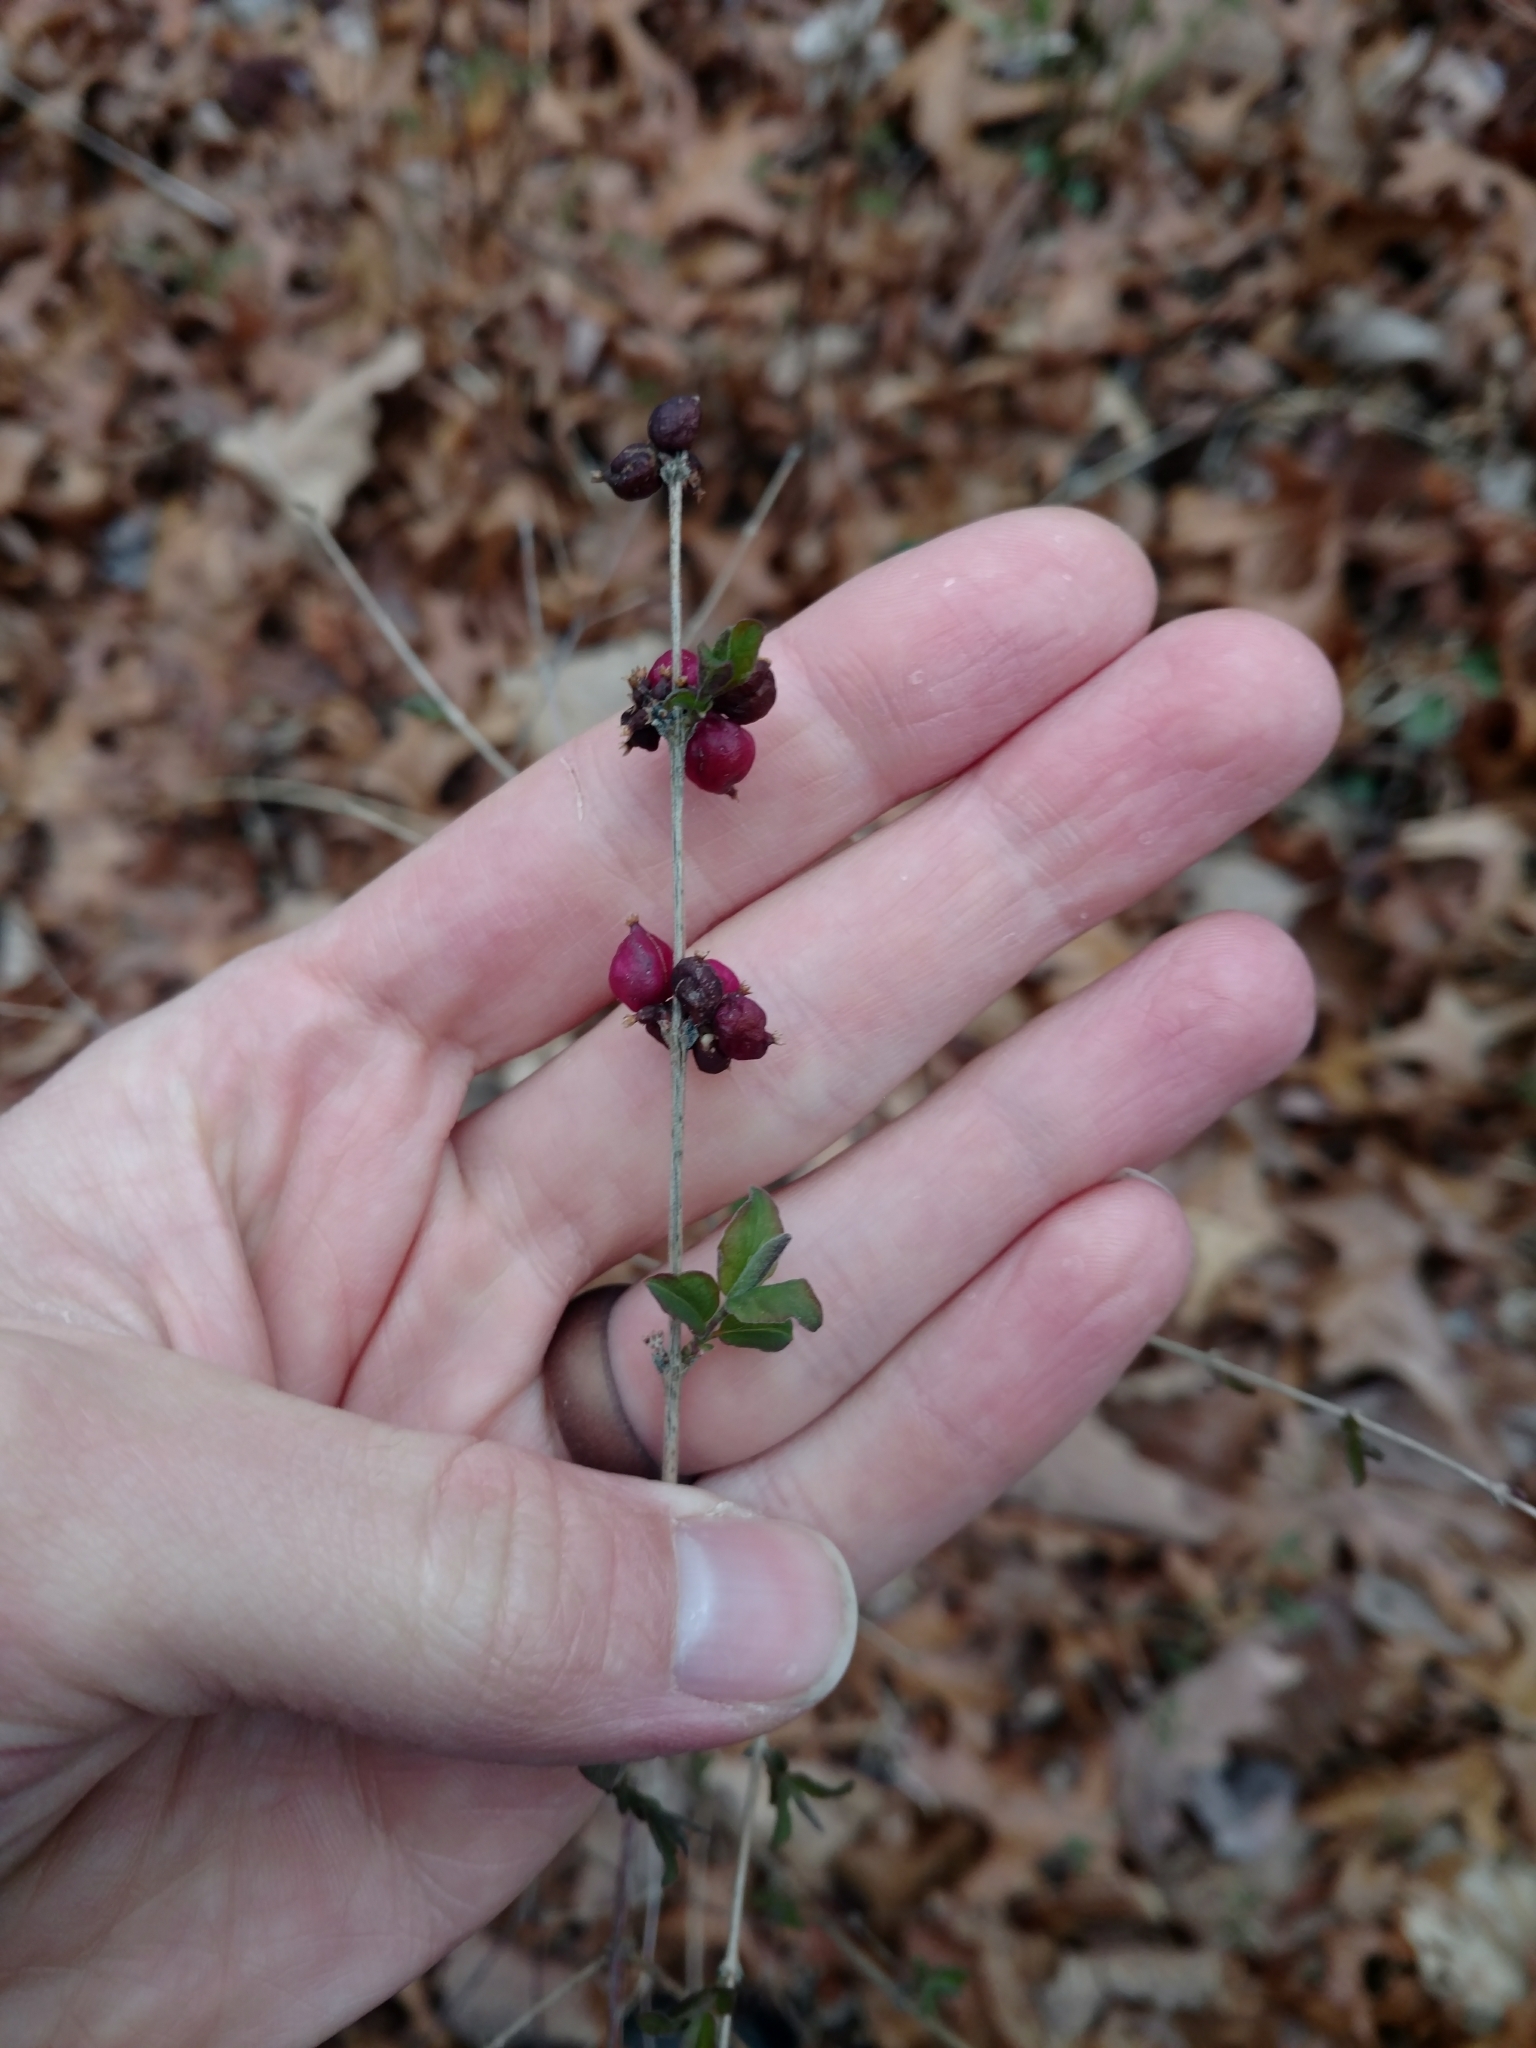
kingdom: Plantae
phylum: Tracheophyta
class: Magnoliopsida
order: Dipsacales
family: Caprifoliaceae
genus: Symphoricarpos
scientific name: Symphoricarpos orbiculatus
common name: Coralberry
